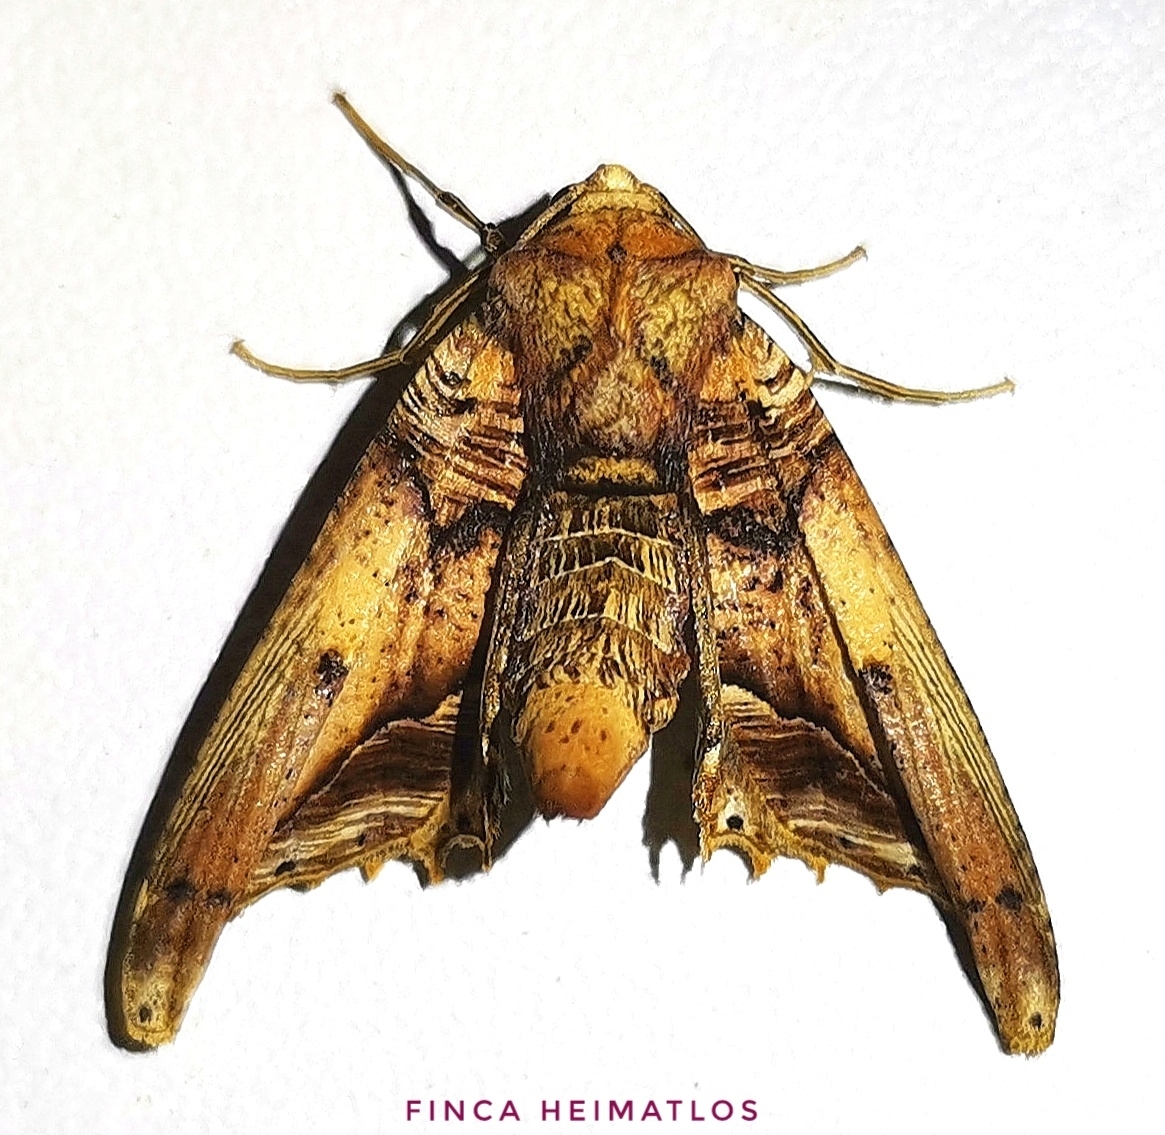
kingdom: Animalia
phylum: Arthropoda
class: Insecta
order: Lepidoptera
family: Geometridae
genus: Pero
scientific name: Pero cyclodaria
